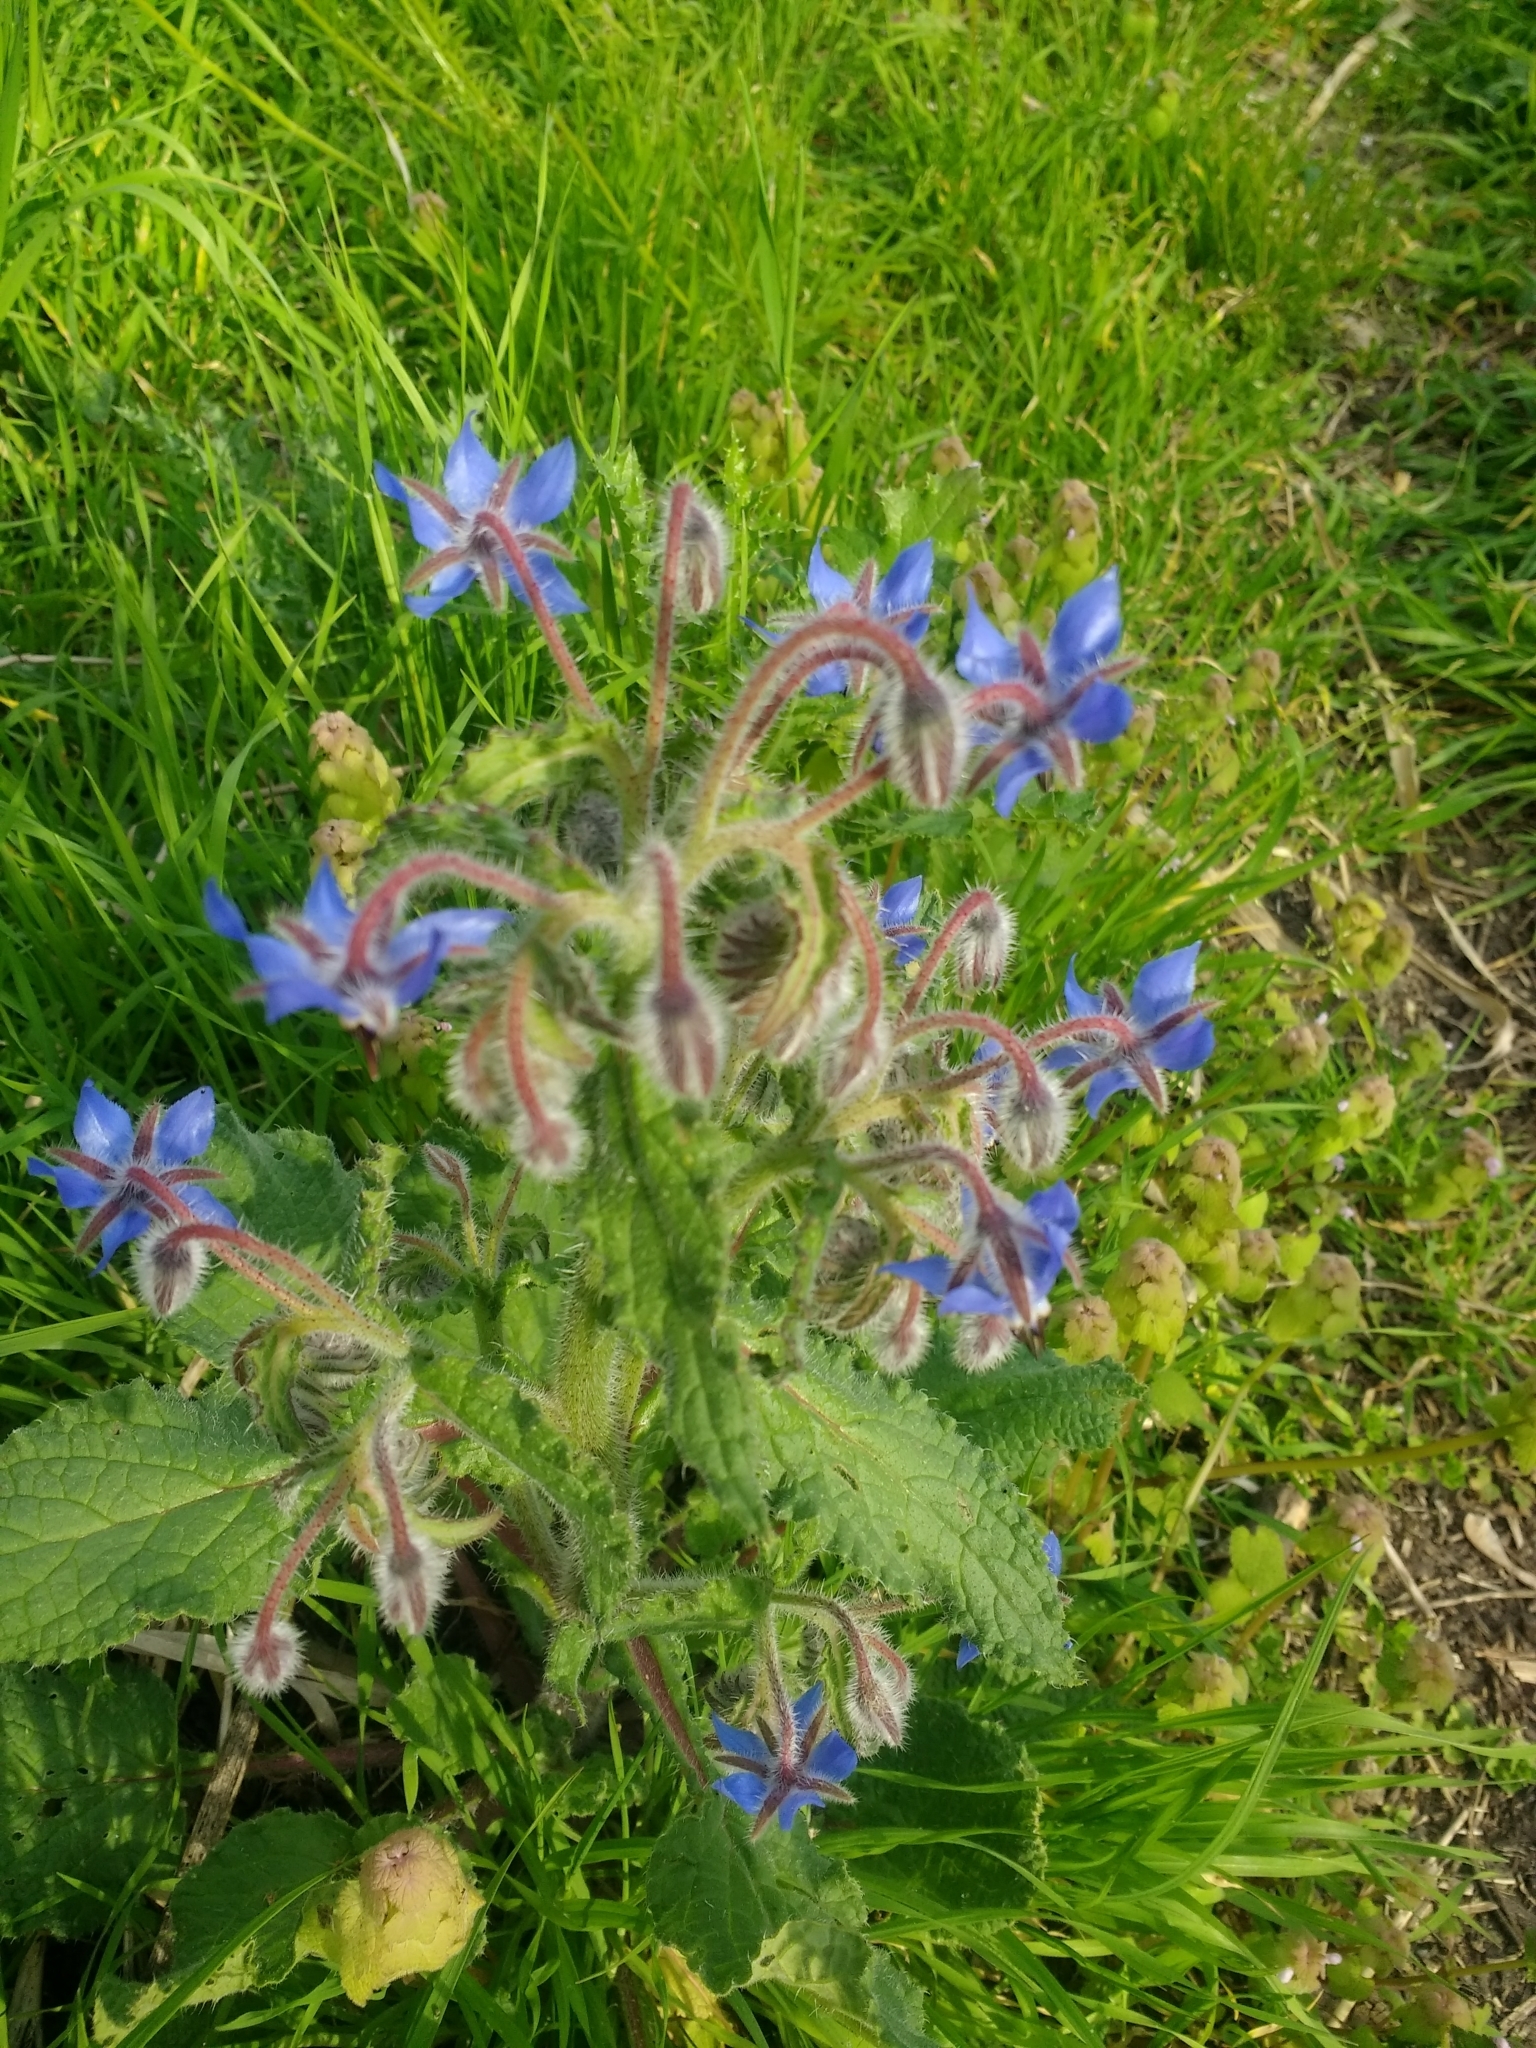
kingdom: Plantae
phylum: Tracheophyta
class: Magnoliopsida
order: Boraginales
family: Boraginaceae
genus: Borago
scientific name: Borago officinalis
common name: Borage
